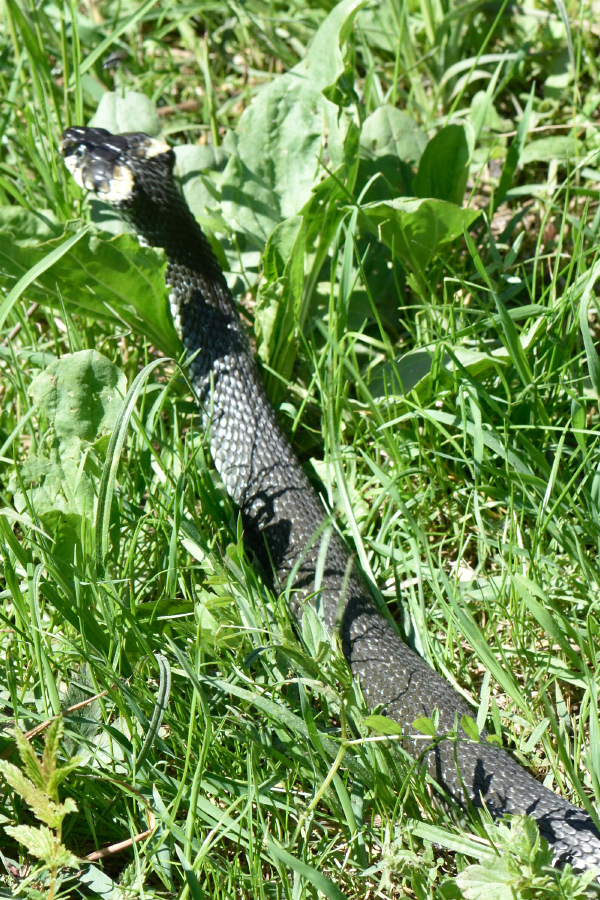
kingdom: Animalia
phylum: Chordata
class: Squamata
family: Colubridae
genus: Natrix
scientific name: Natrix natrix
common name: Grass snake
